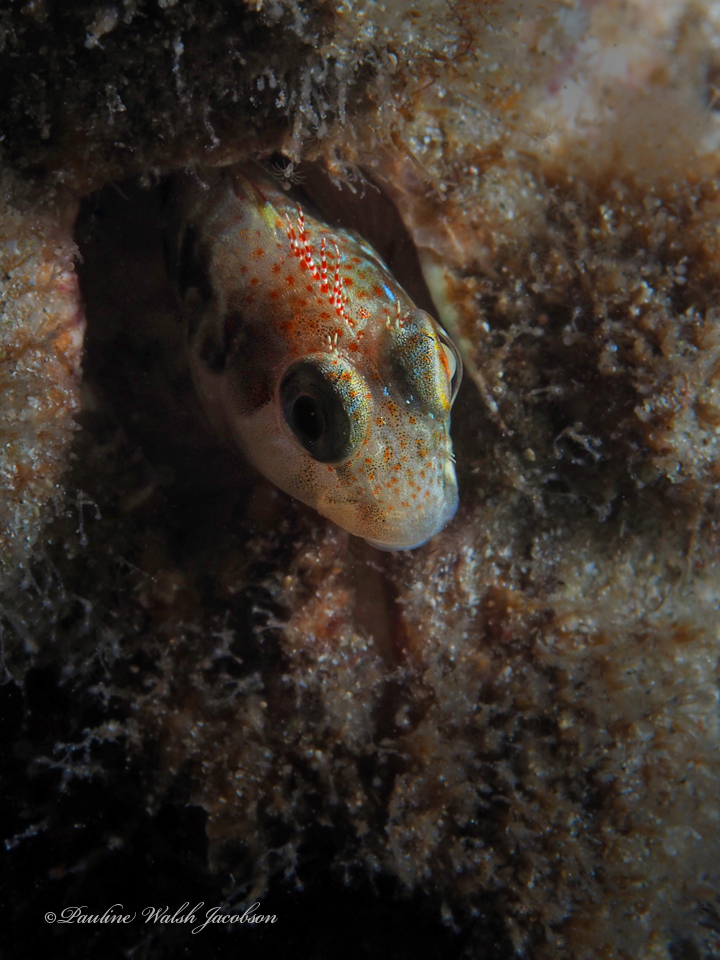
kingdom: Animalia
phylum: Chordata
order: Perciformes
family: Blenniidae
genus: Scartella
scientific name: Scartella cristata
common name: Molly miller
